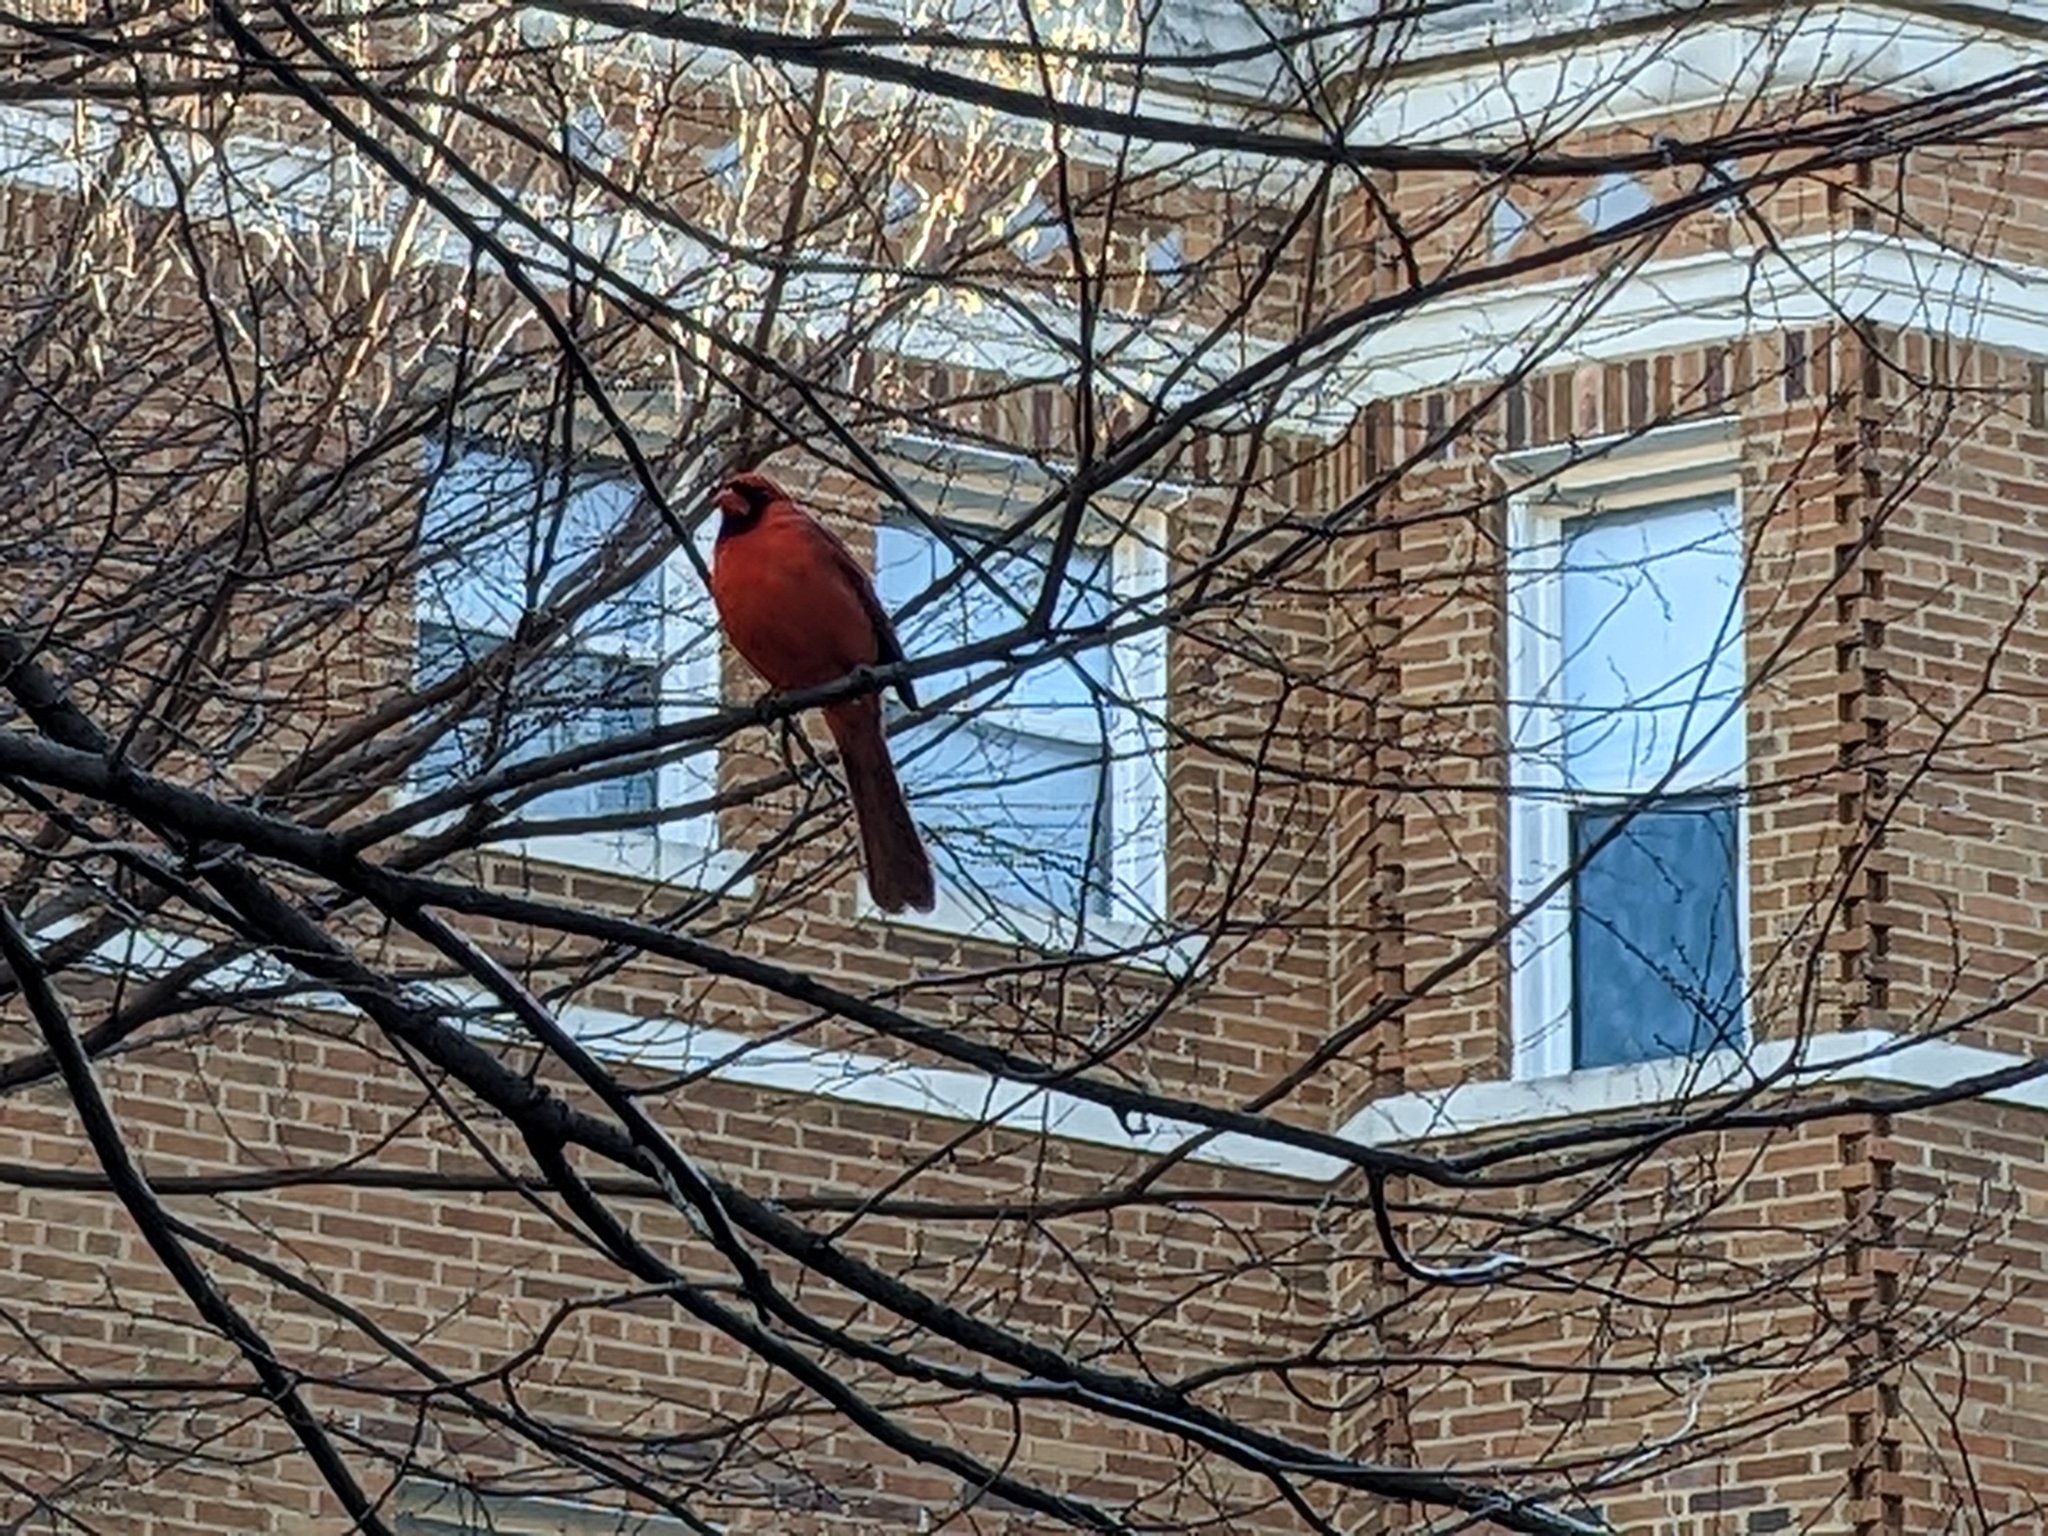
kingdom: Animalia
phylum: Chordata
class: Aves
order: Passeriformes
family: Cardinalidae
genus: Cardinalis
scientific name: Cardinalis cardinalis
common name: Northern cardinal
